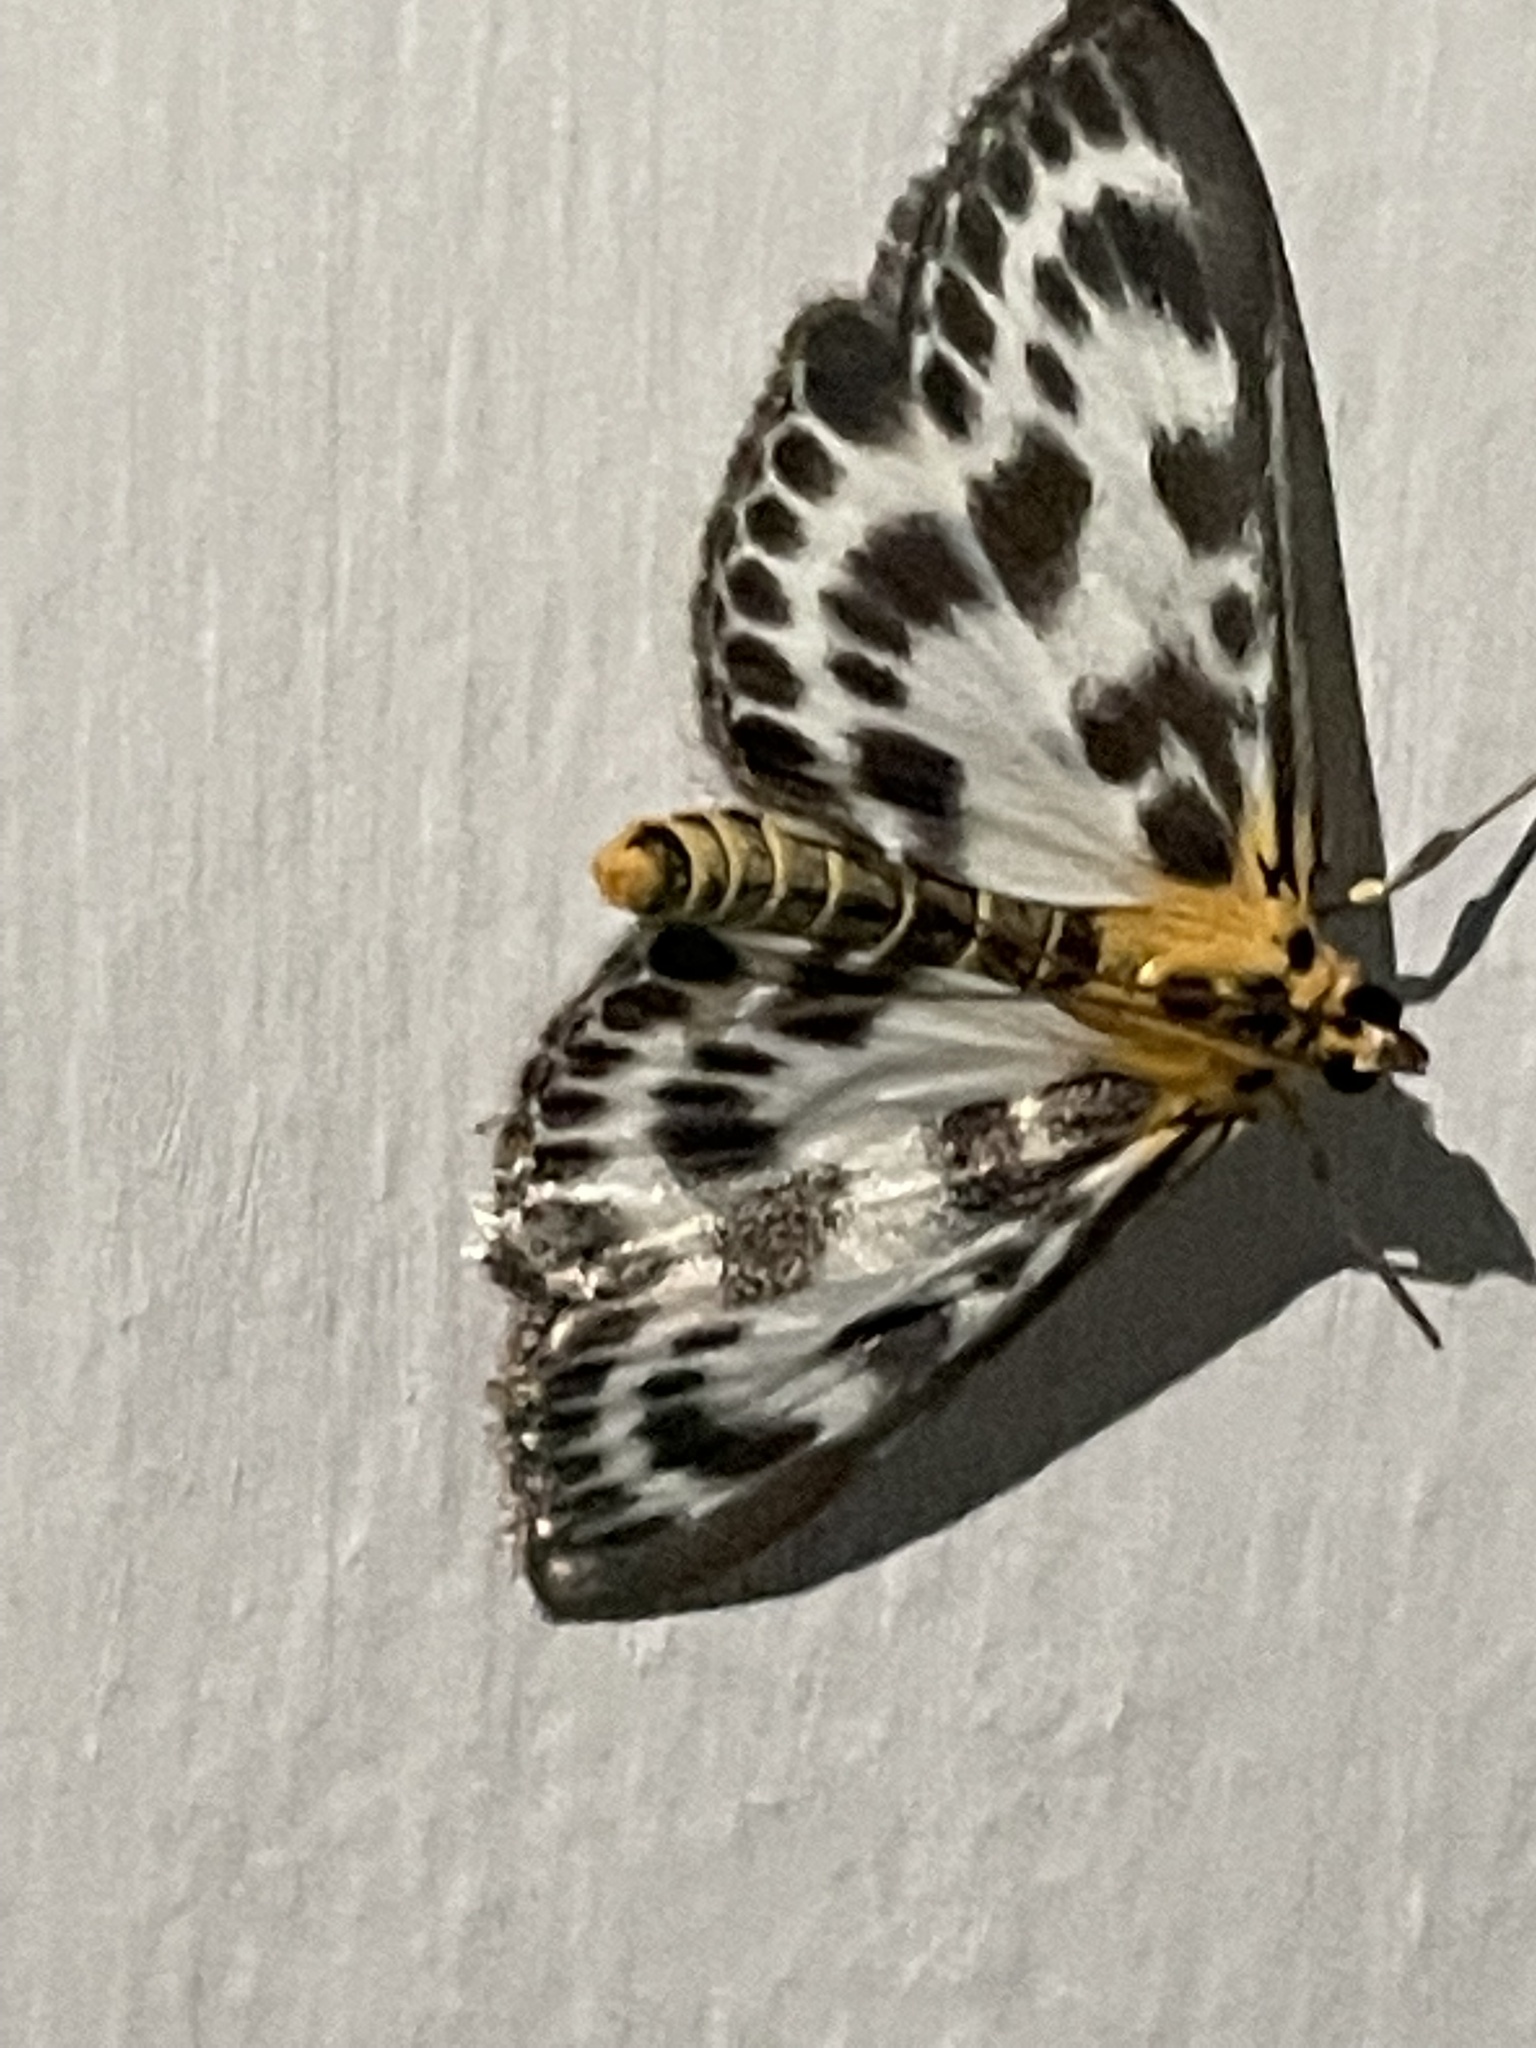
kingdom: Animalia
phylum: Arthropoda
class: Insecta
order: Lepidoptera
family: Crambidae
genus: Anania
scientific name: Anania hortulata
